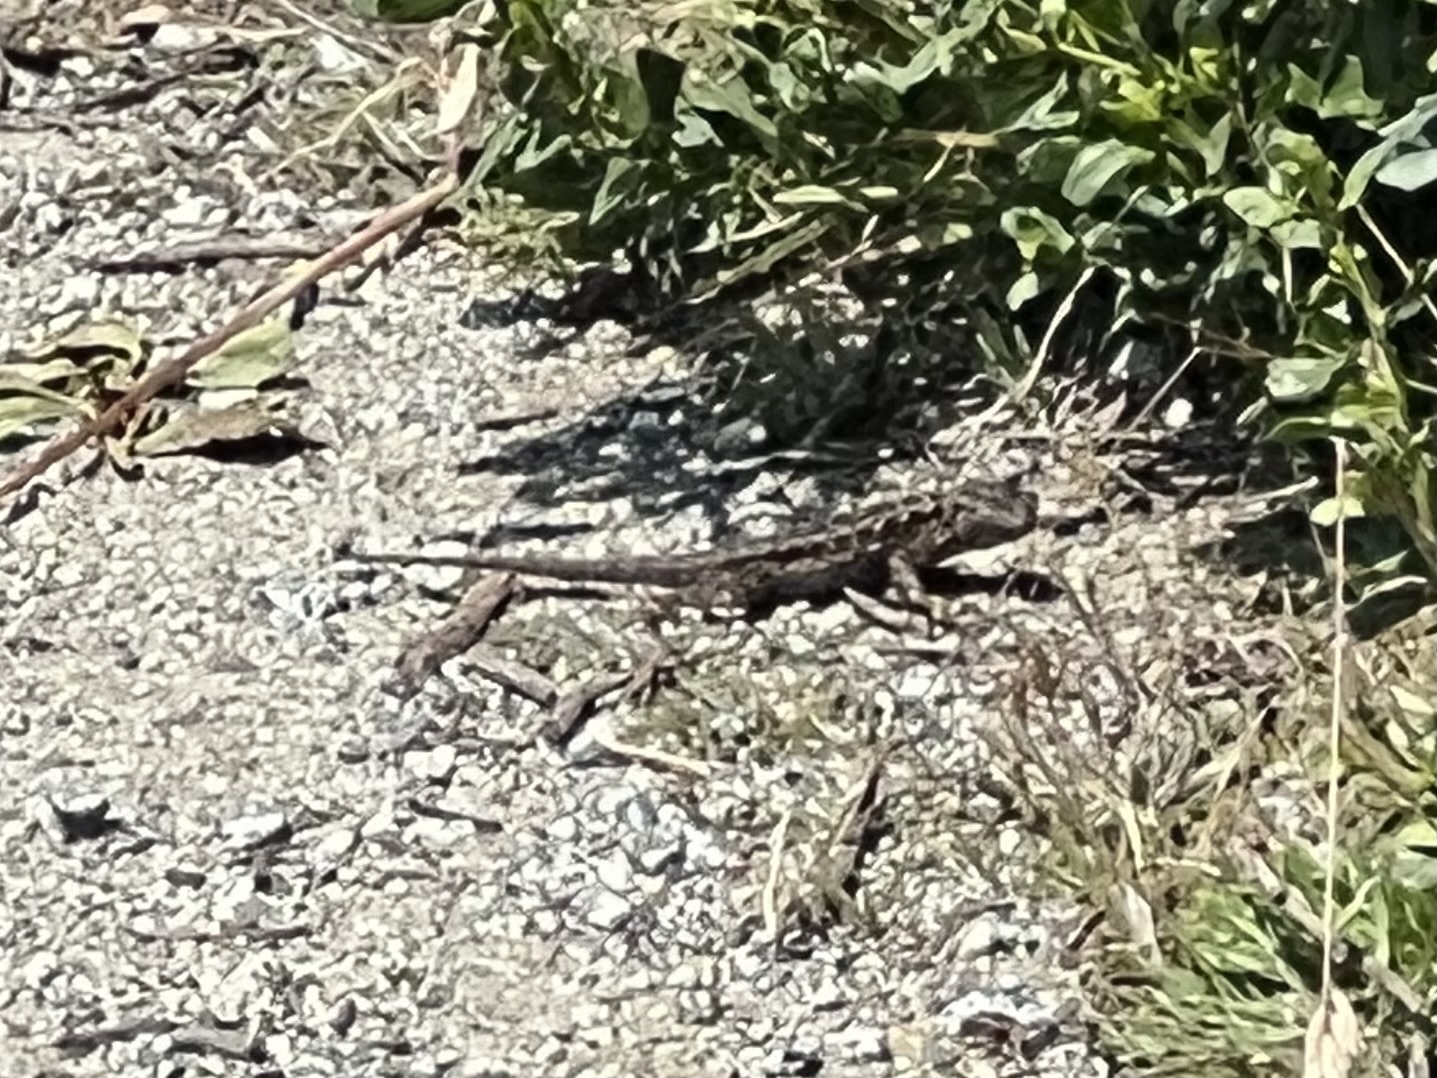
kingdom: Animalia
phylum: Chordata
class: Squamata
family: Phrynosomatidae
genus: Sceloporus
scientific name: Sceloporus occidentalis
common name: Western fence lizard
